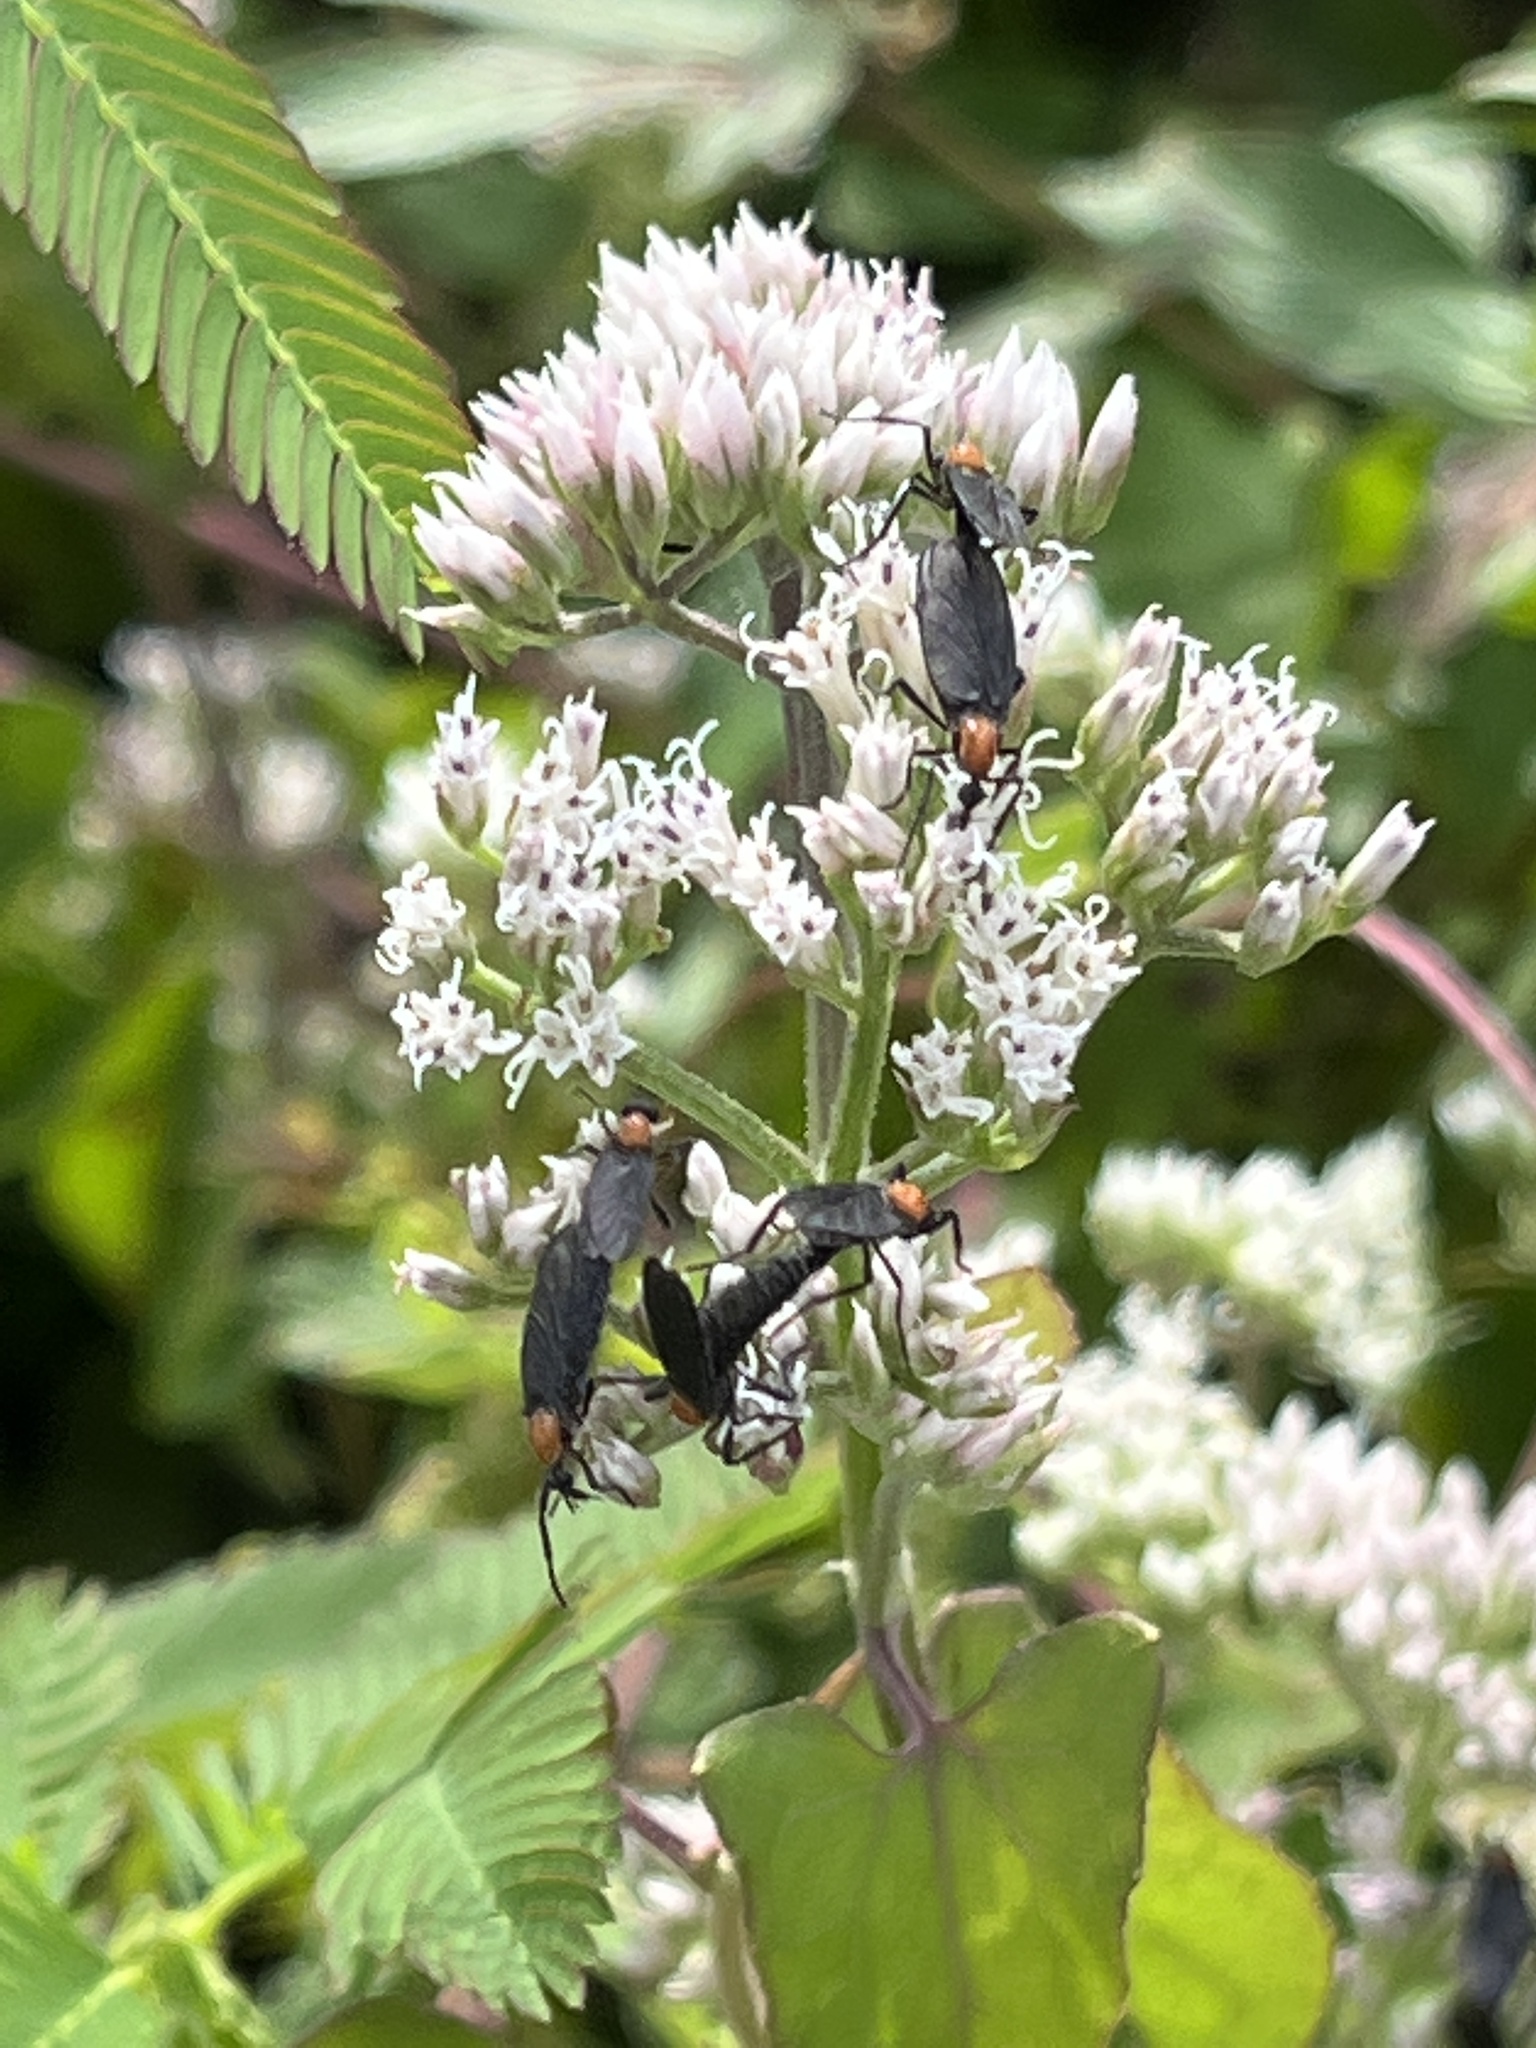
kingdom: Animalia
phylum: Arthropoda
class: Insecta
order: Diptera
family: Bibionidae
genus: Plecia
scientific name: Plecia nearctica
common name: March fly
